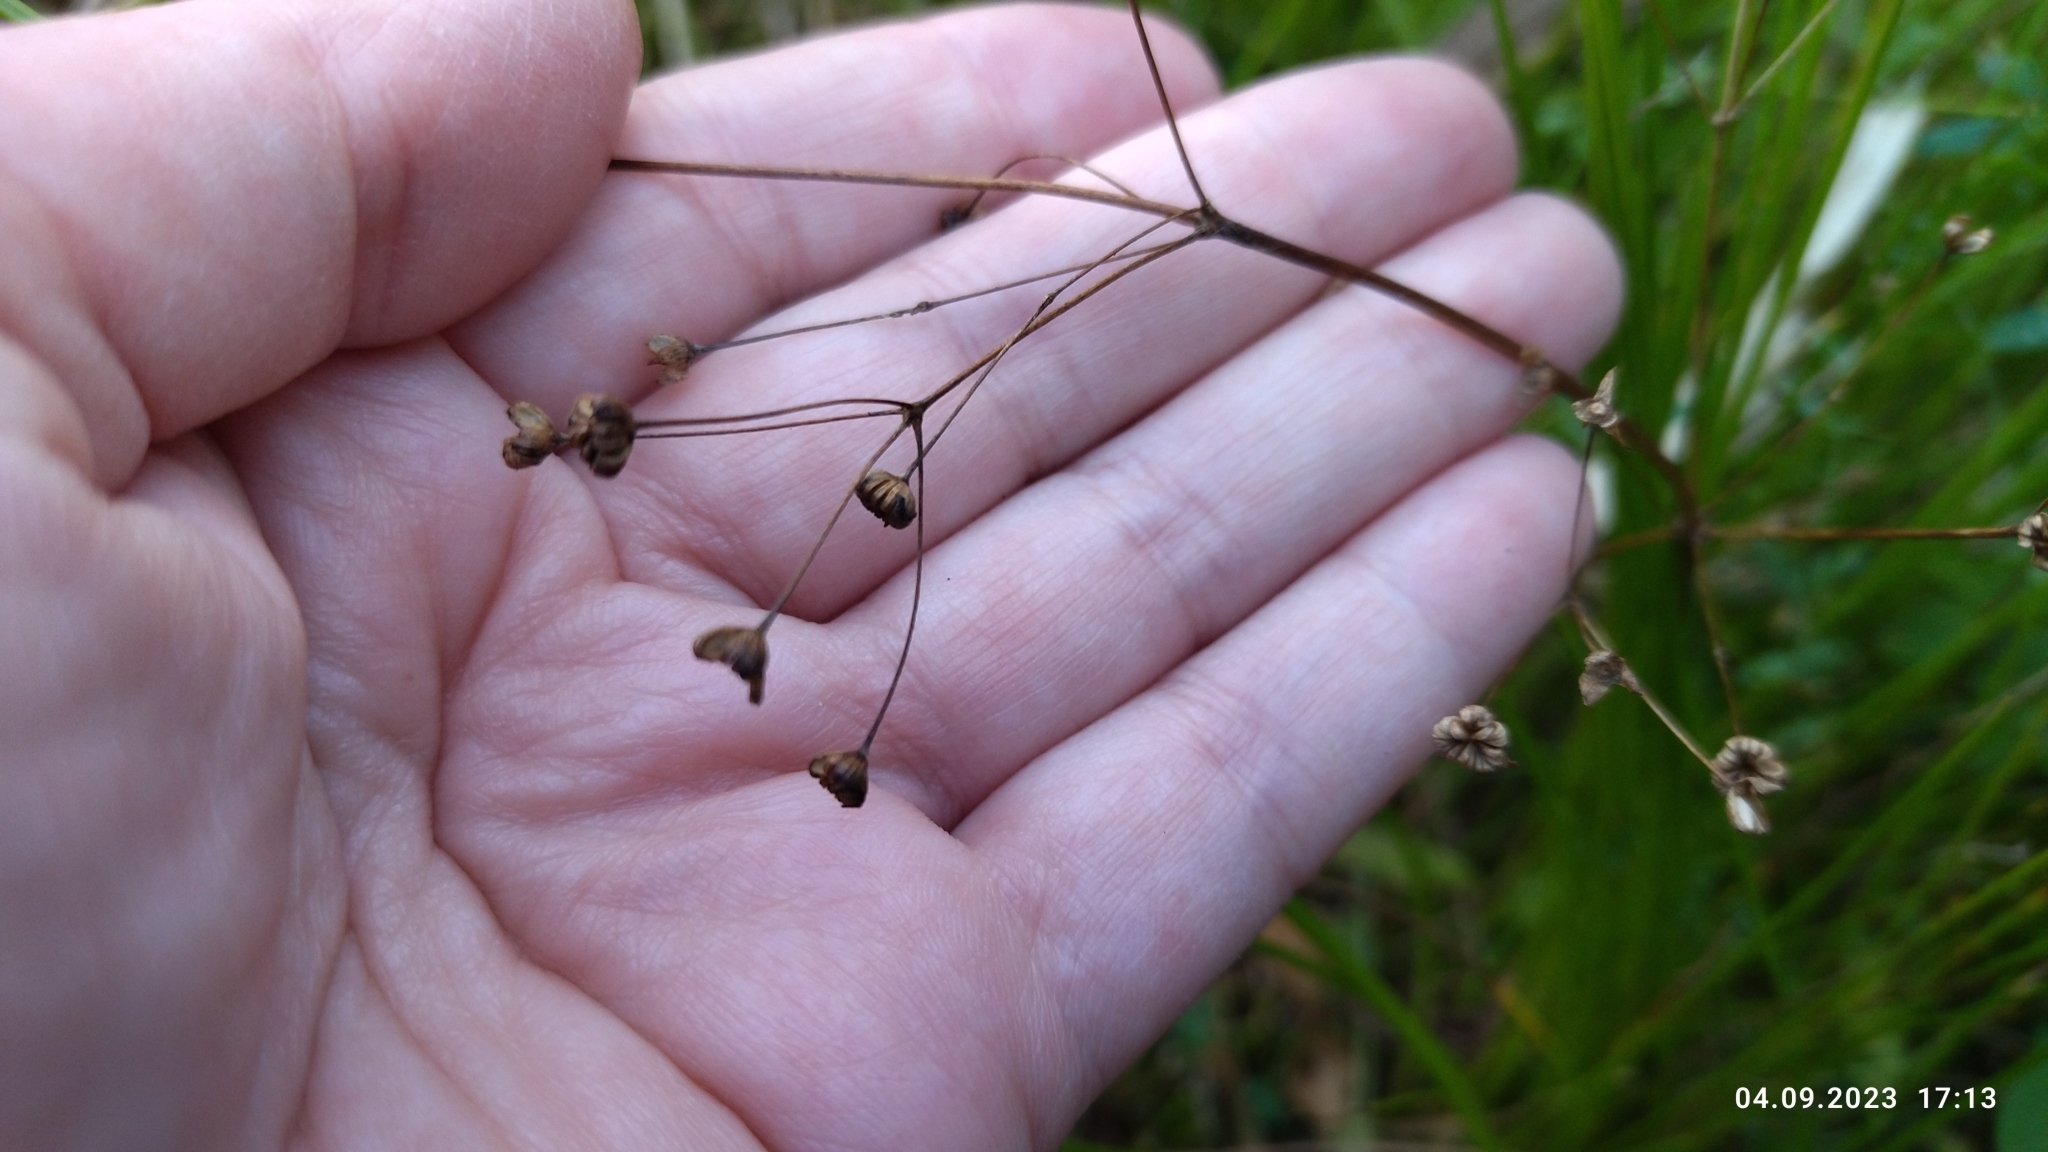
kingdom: Plantae
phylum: Tracheophyta
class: Liliopsida
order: Alismatales
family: Alismataceae
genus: Alisma
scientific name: Alisma plantago-aquatica
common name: Water-plantain
